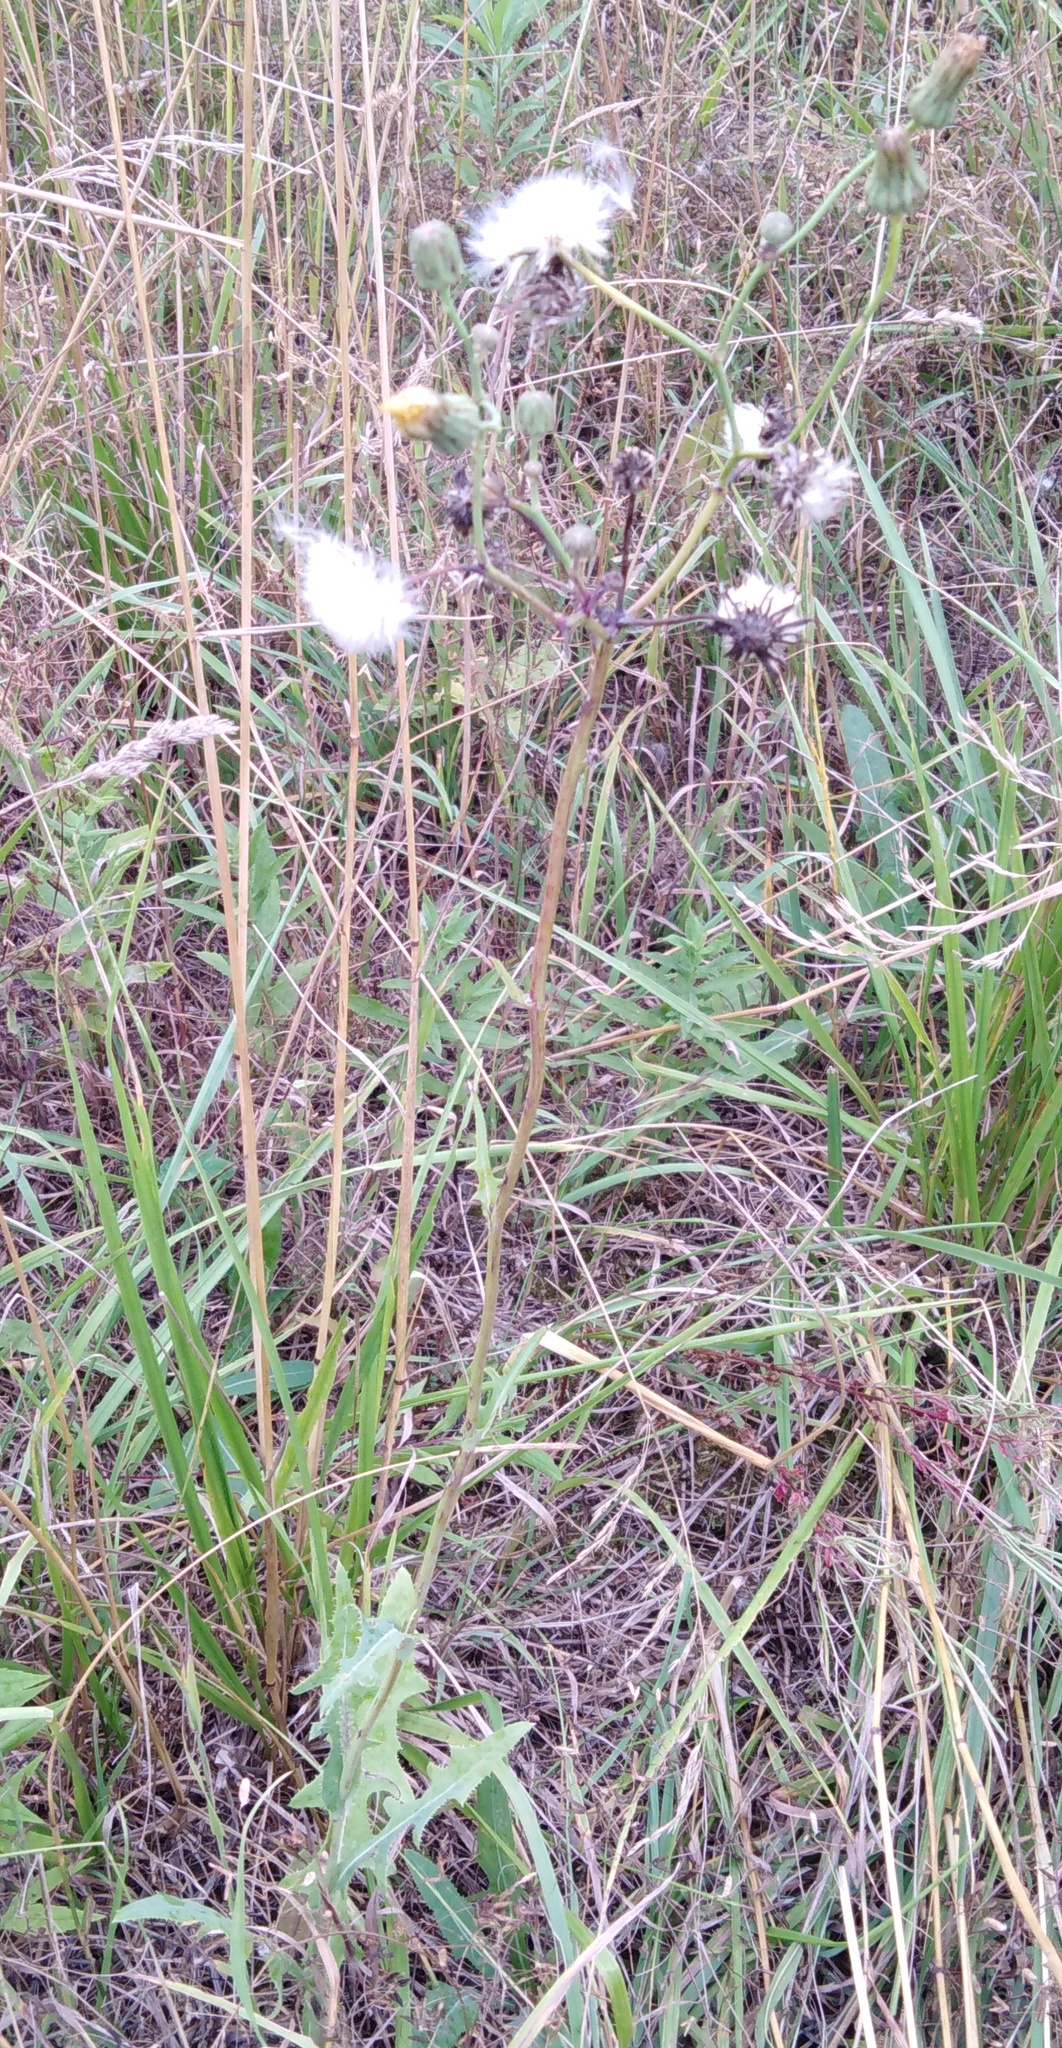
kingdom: Plantae
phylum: Tracheophyta
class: Magnoliopsida
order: Asterales
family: Asteraceae
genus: Sonchus
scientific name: Sonchus arvensis
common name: Perennial sow-thistle
